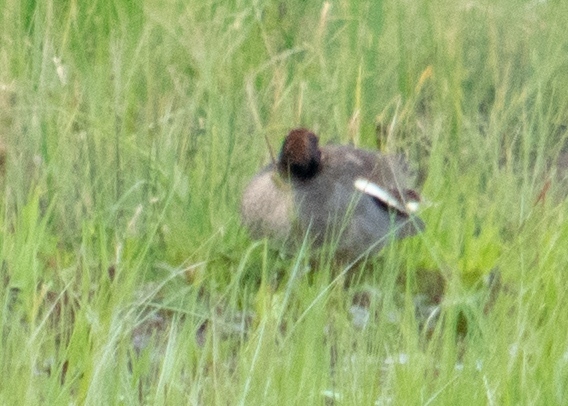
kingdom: Animalia
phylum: Chordata
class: Aves
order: Anseriformes
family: Anatidae
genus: Anas
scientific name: Anas crecca
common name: Eurasian teal
